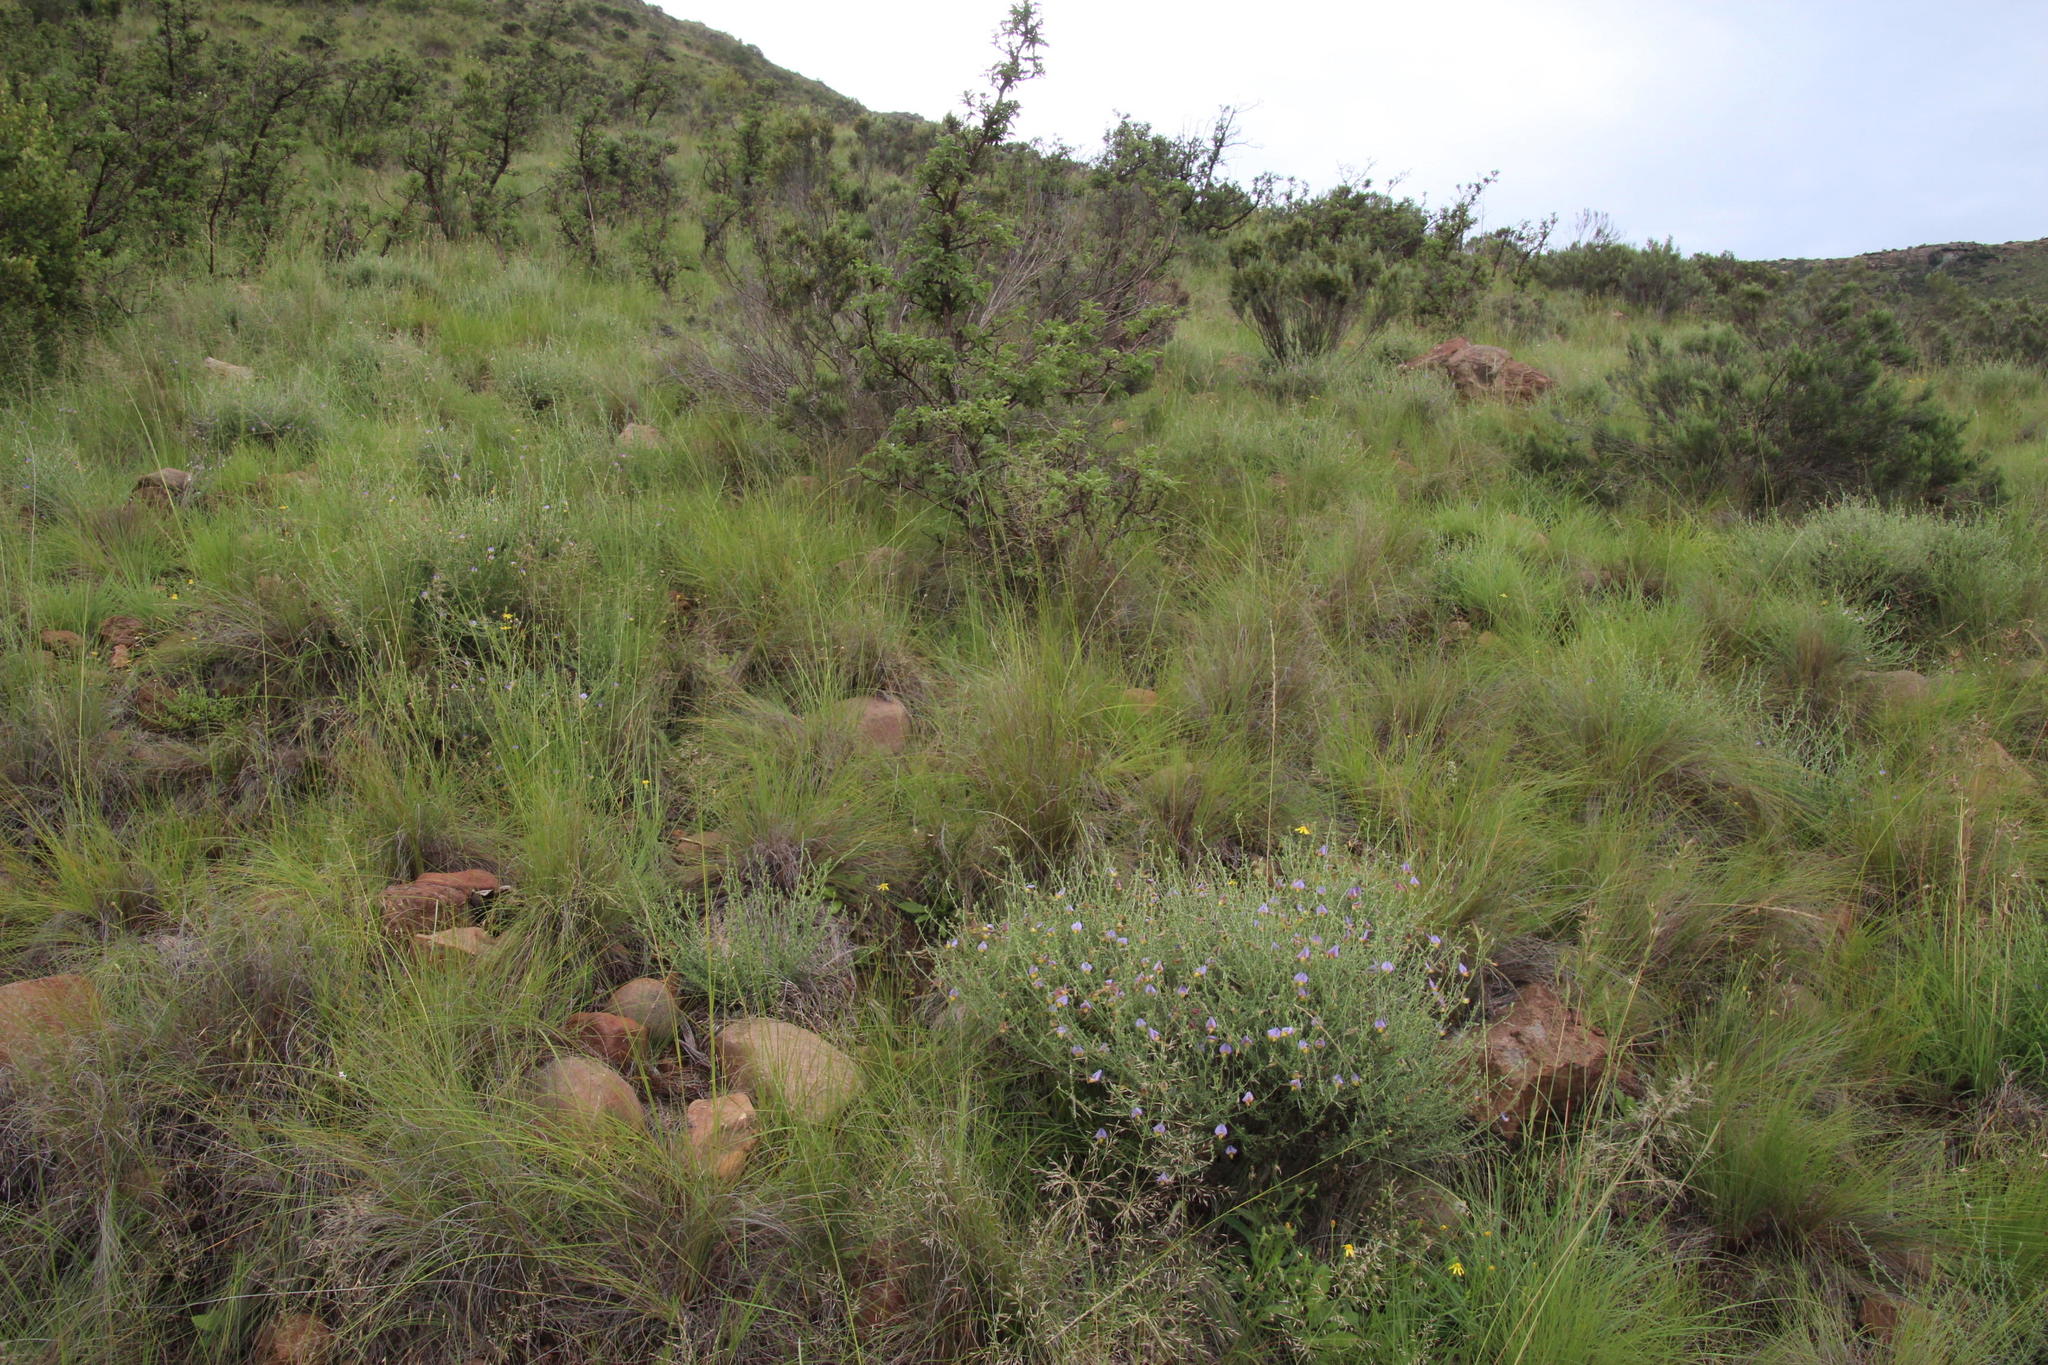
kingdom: Plantae
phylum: Tracheophyta
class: Magnoliopsida
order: Rosales
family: Rosaceae
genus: Leucosidea
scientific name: Leucosidea sericea
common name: Oldwood
